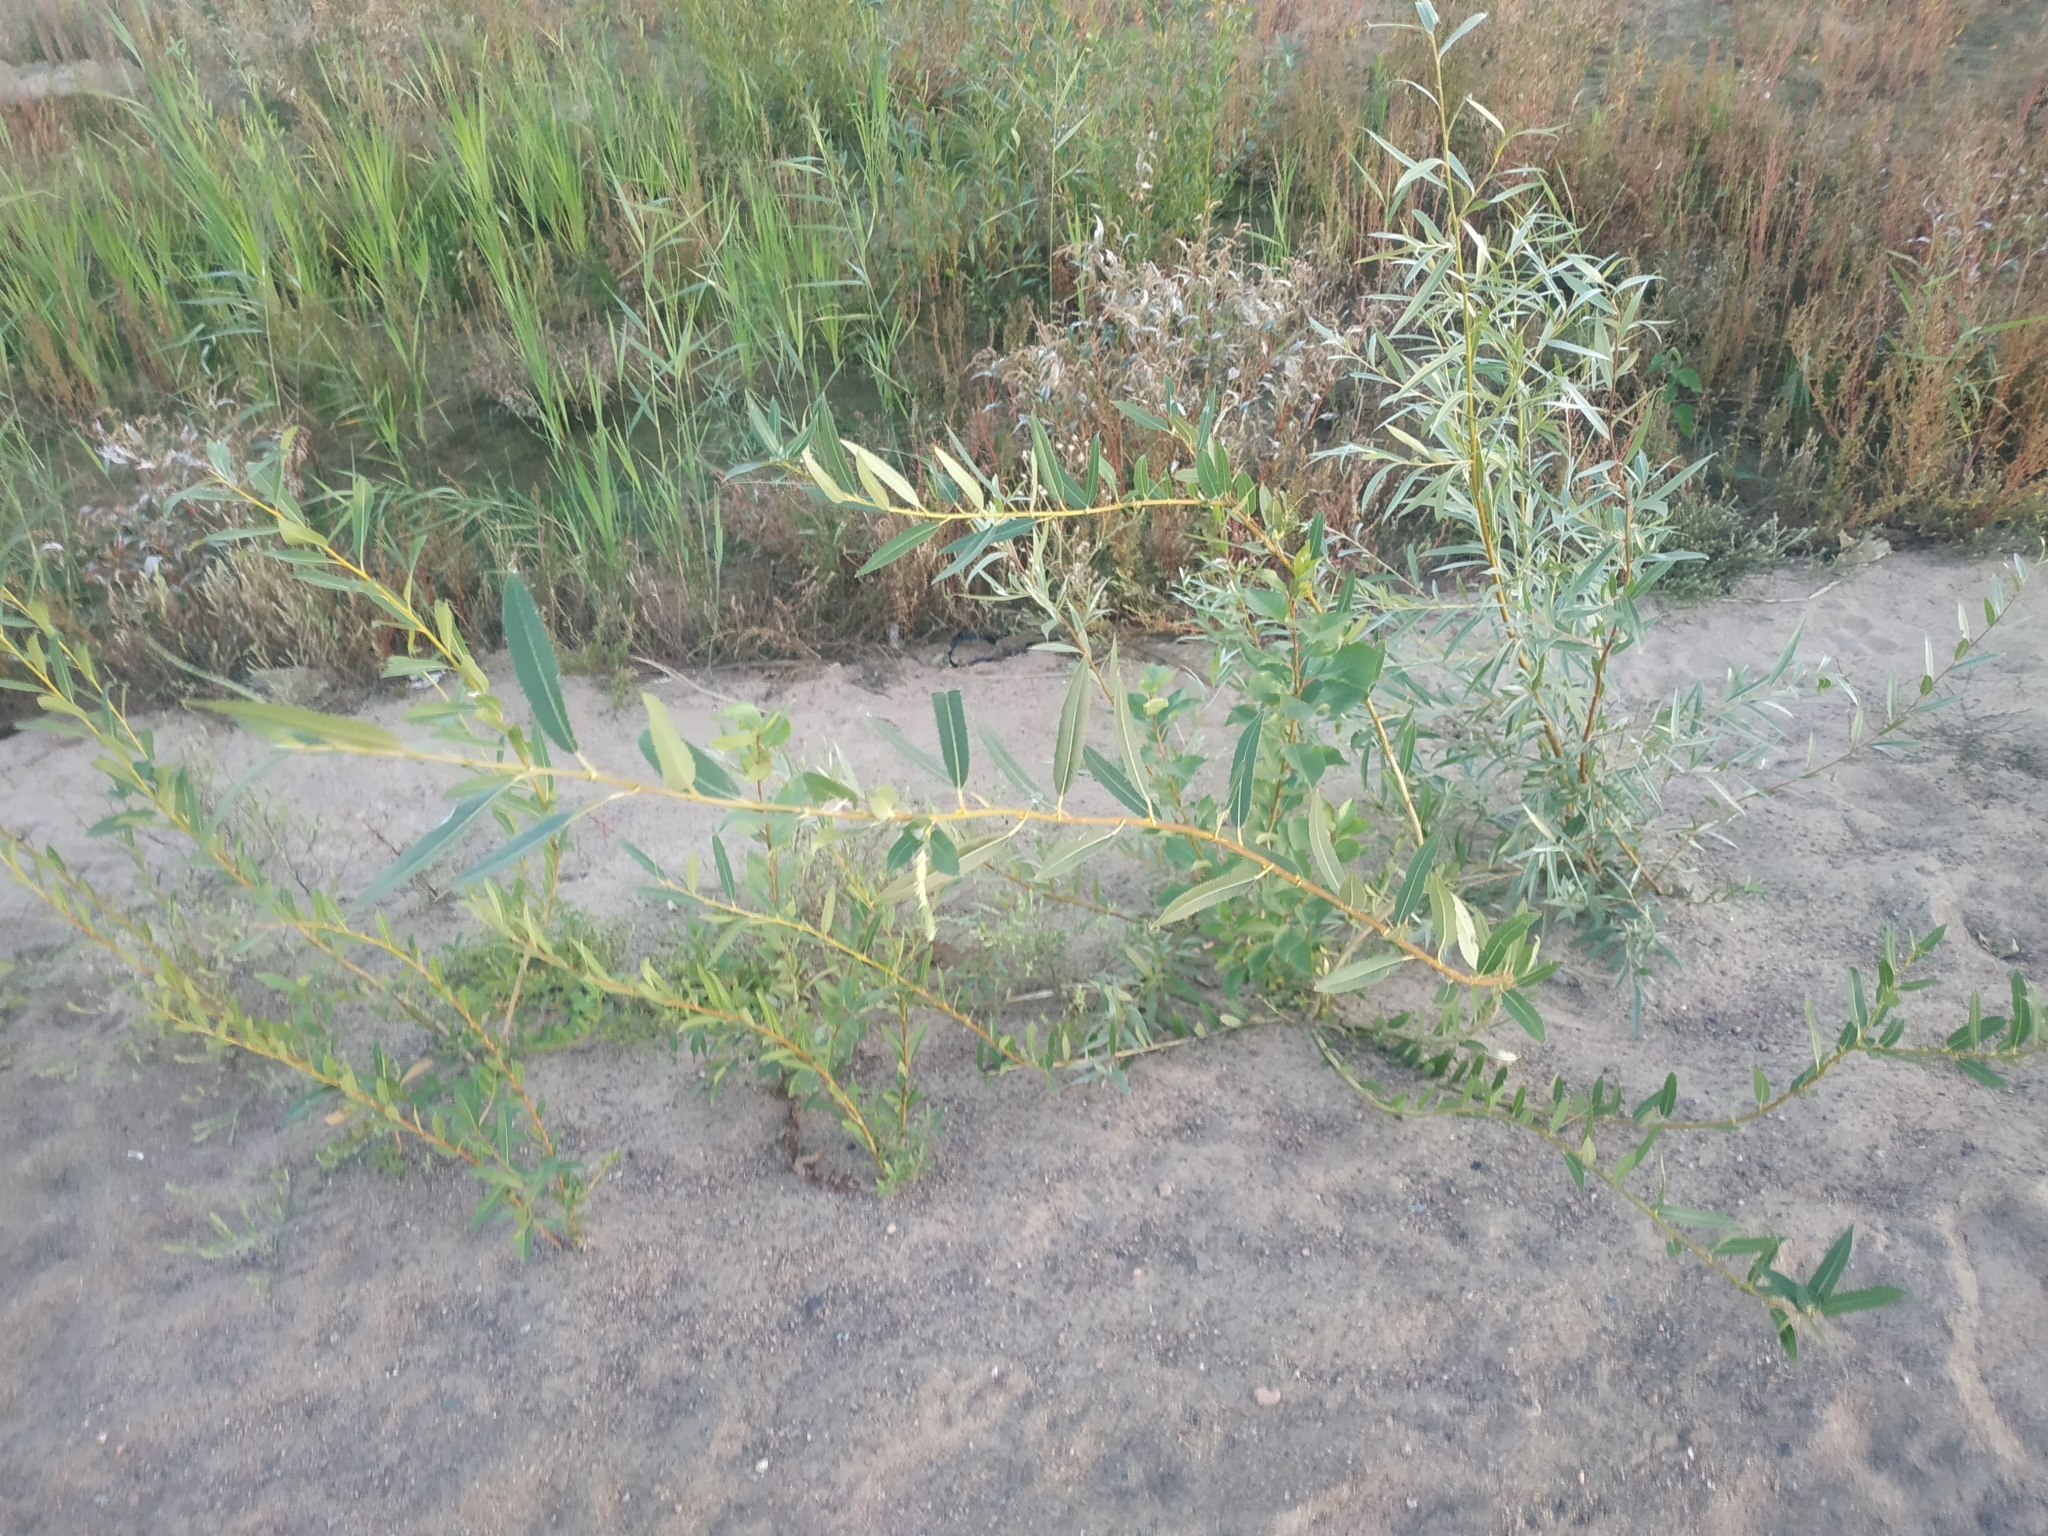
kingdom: Plantae
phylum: Tracheophyta
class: Magnoliopsida
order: Malpighiales
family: Salicaceae
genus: Salix
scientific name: Salix triandra
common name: Almond willow
